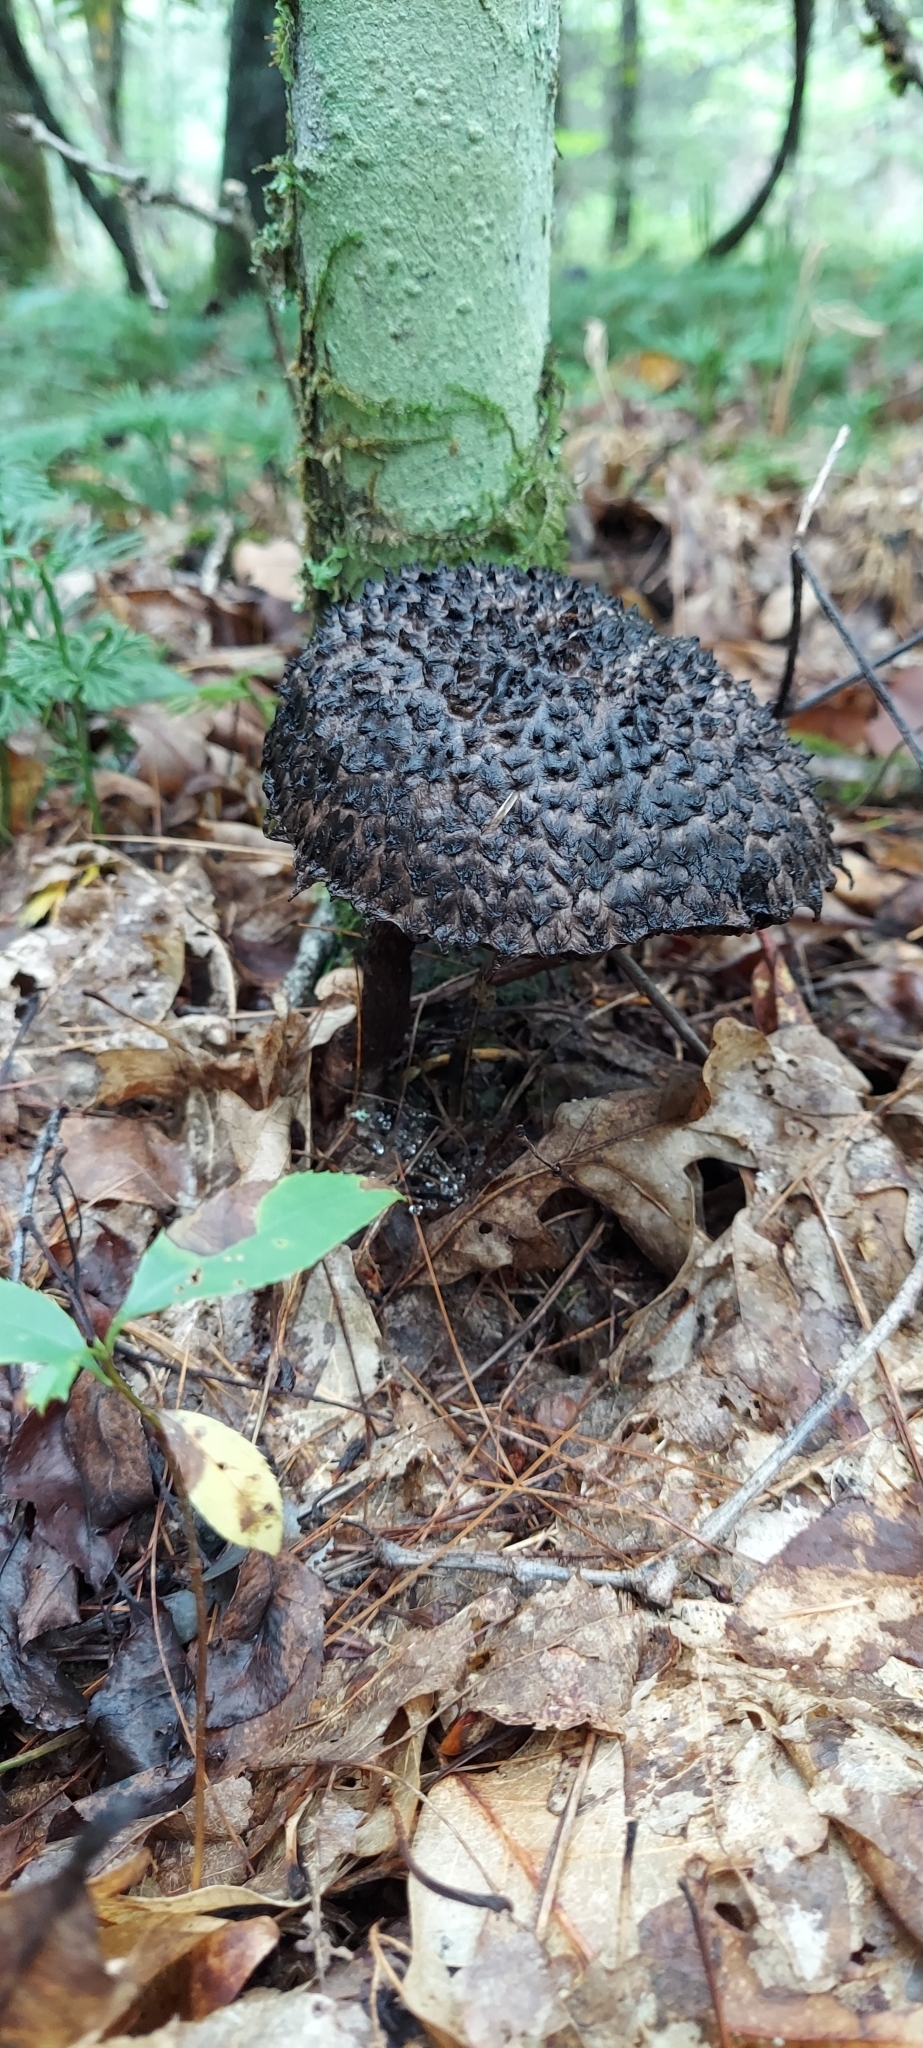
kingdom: Fungi
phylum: Basidiomycota
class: Agaricomycetes
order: Boletales
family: Boletaceae
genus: Strobilomyces
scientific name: Strobilomyces strobilaceus
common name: Old man of the woods
